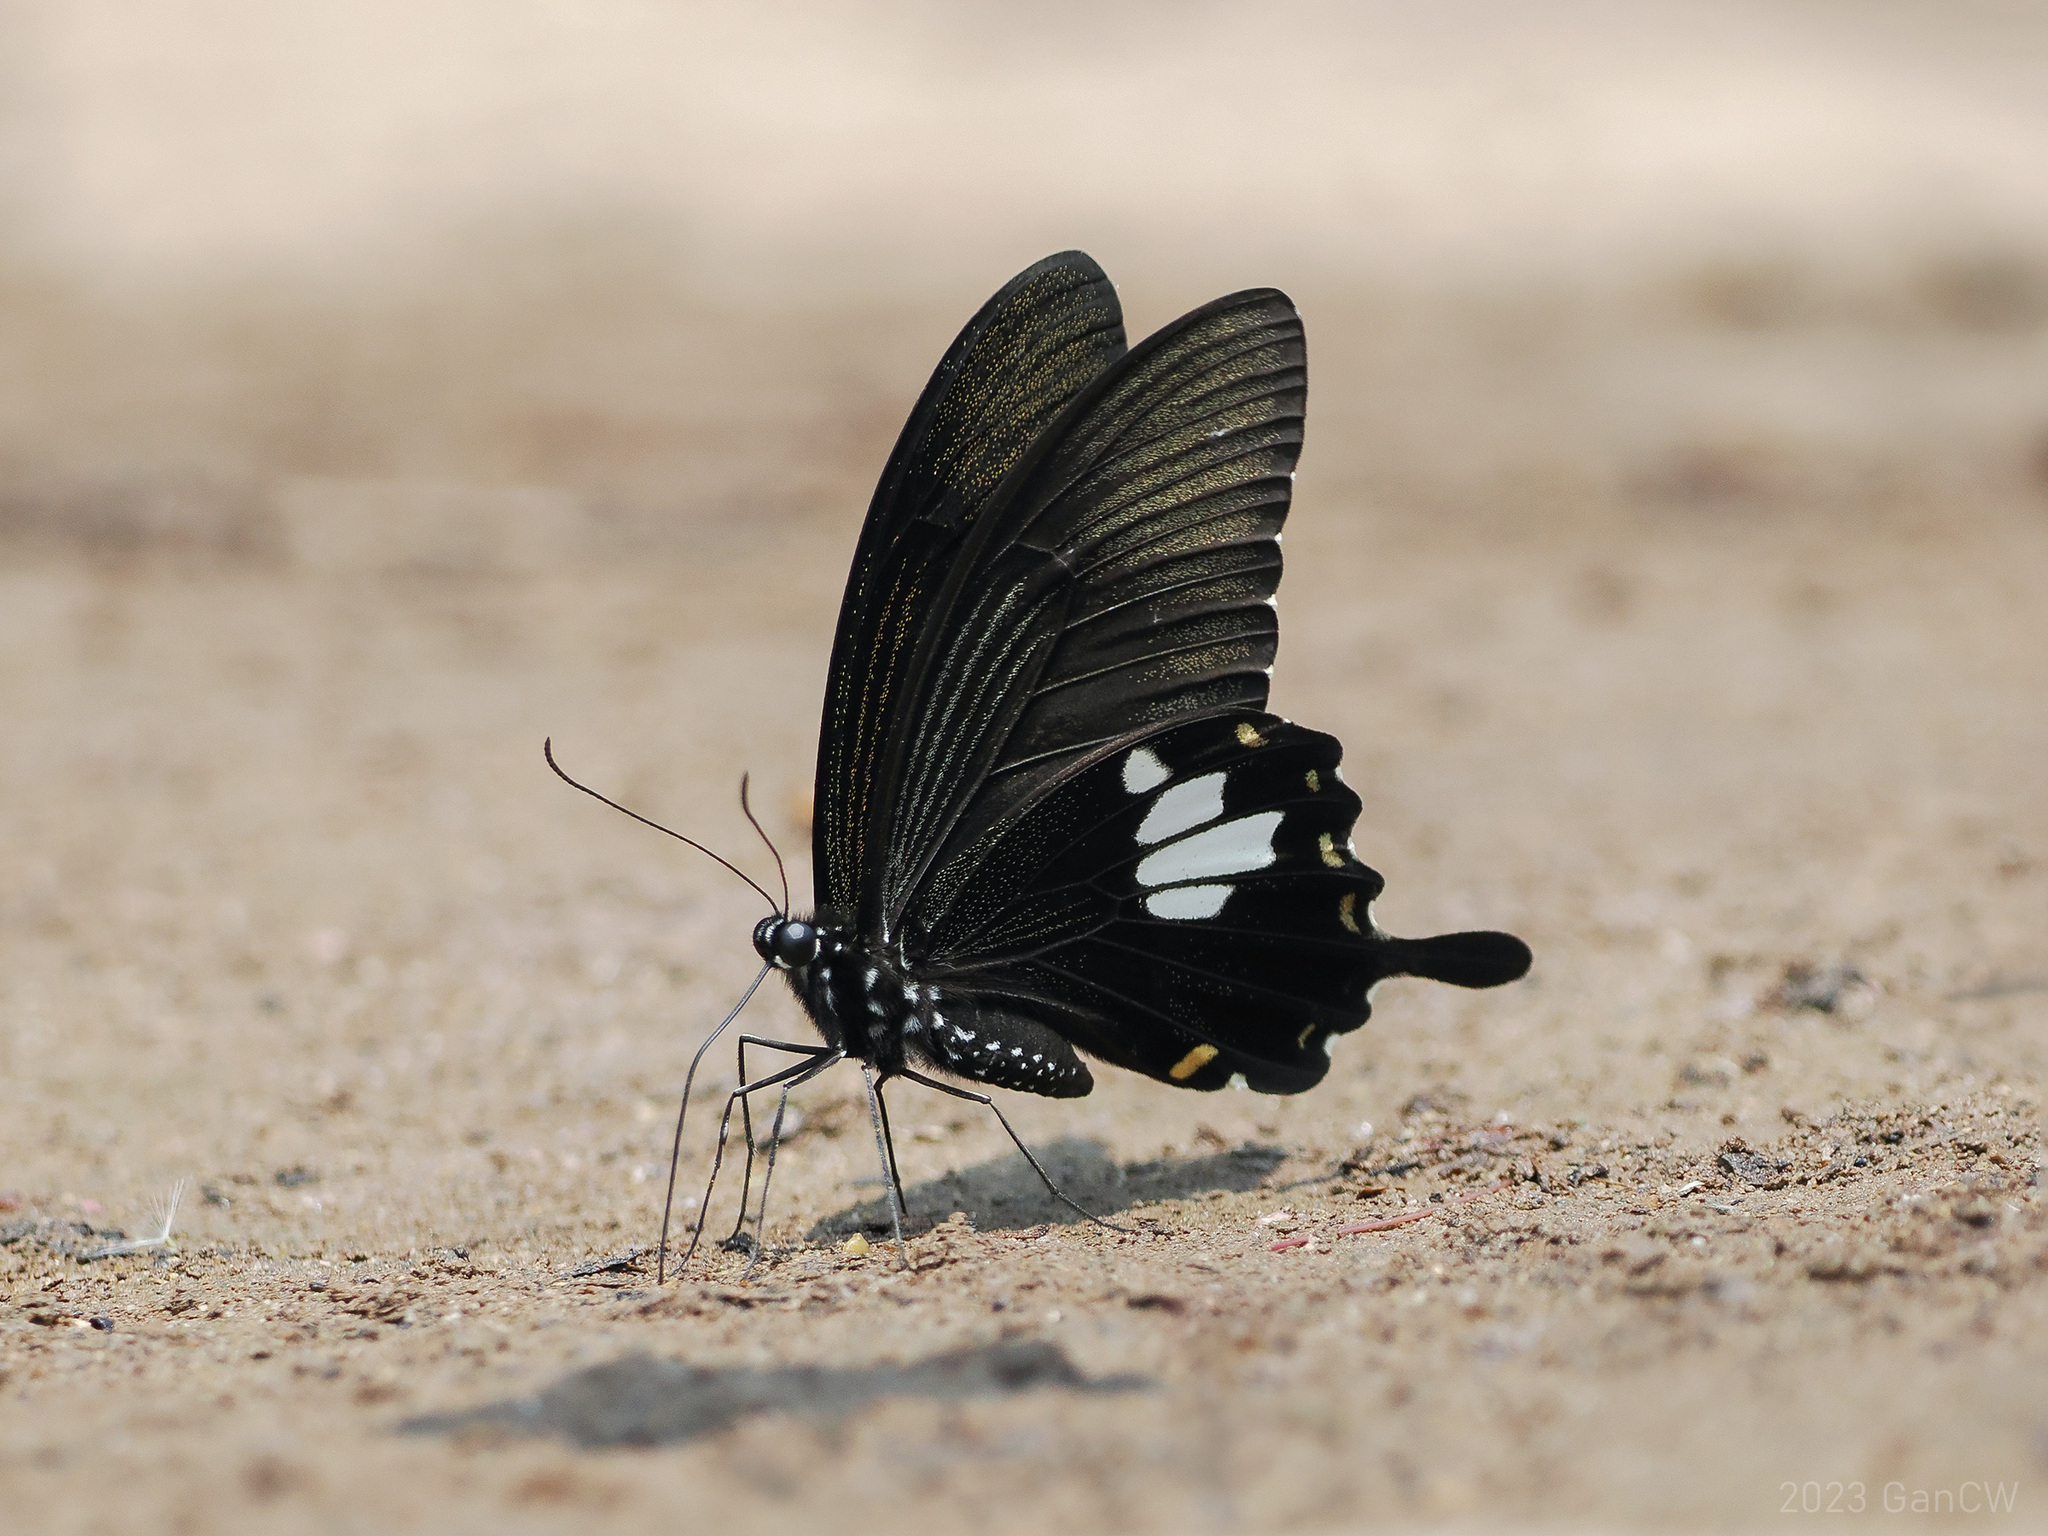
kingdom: Animalia
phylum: Arthropoda
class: Insecta
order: Lepidoptera
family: Papilionidae
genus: Papilio
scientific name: Papilio nephelus
